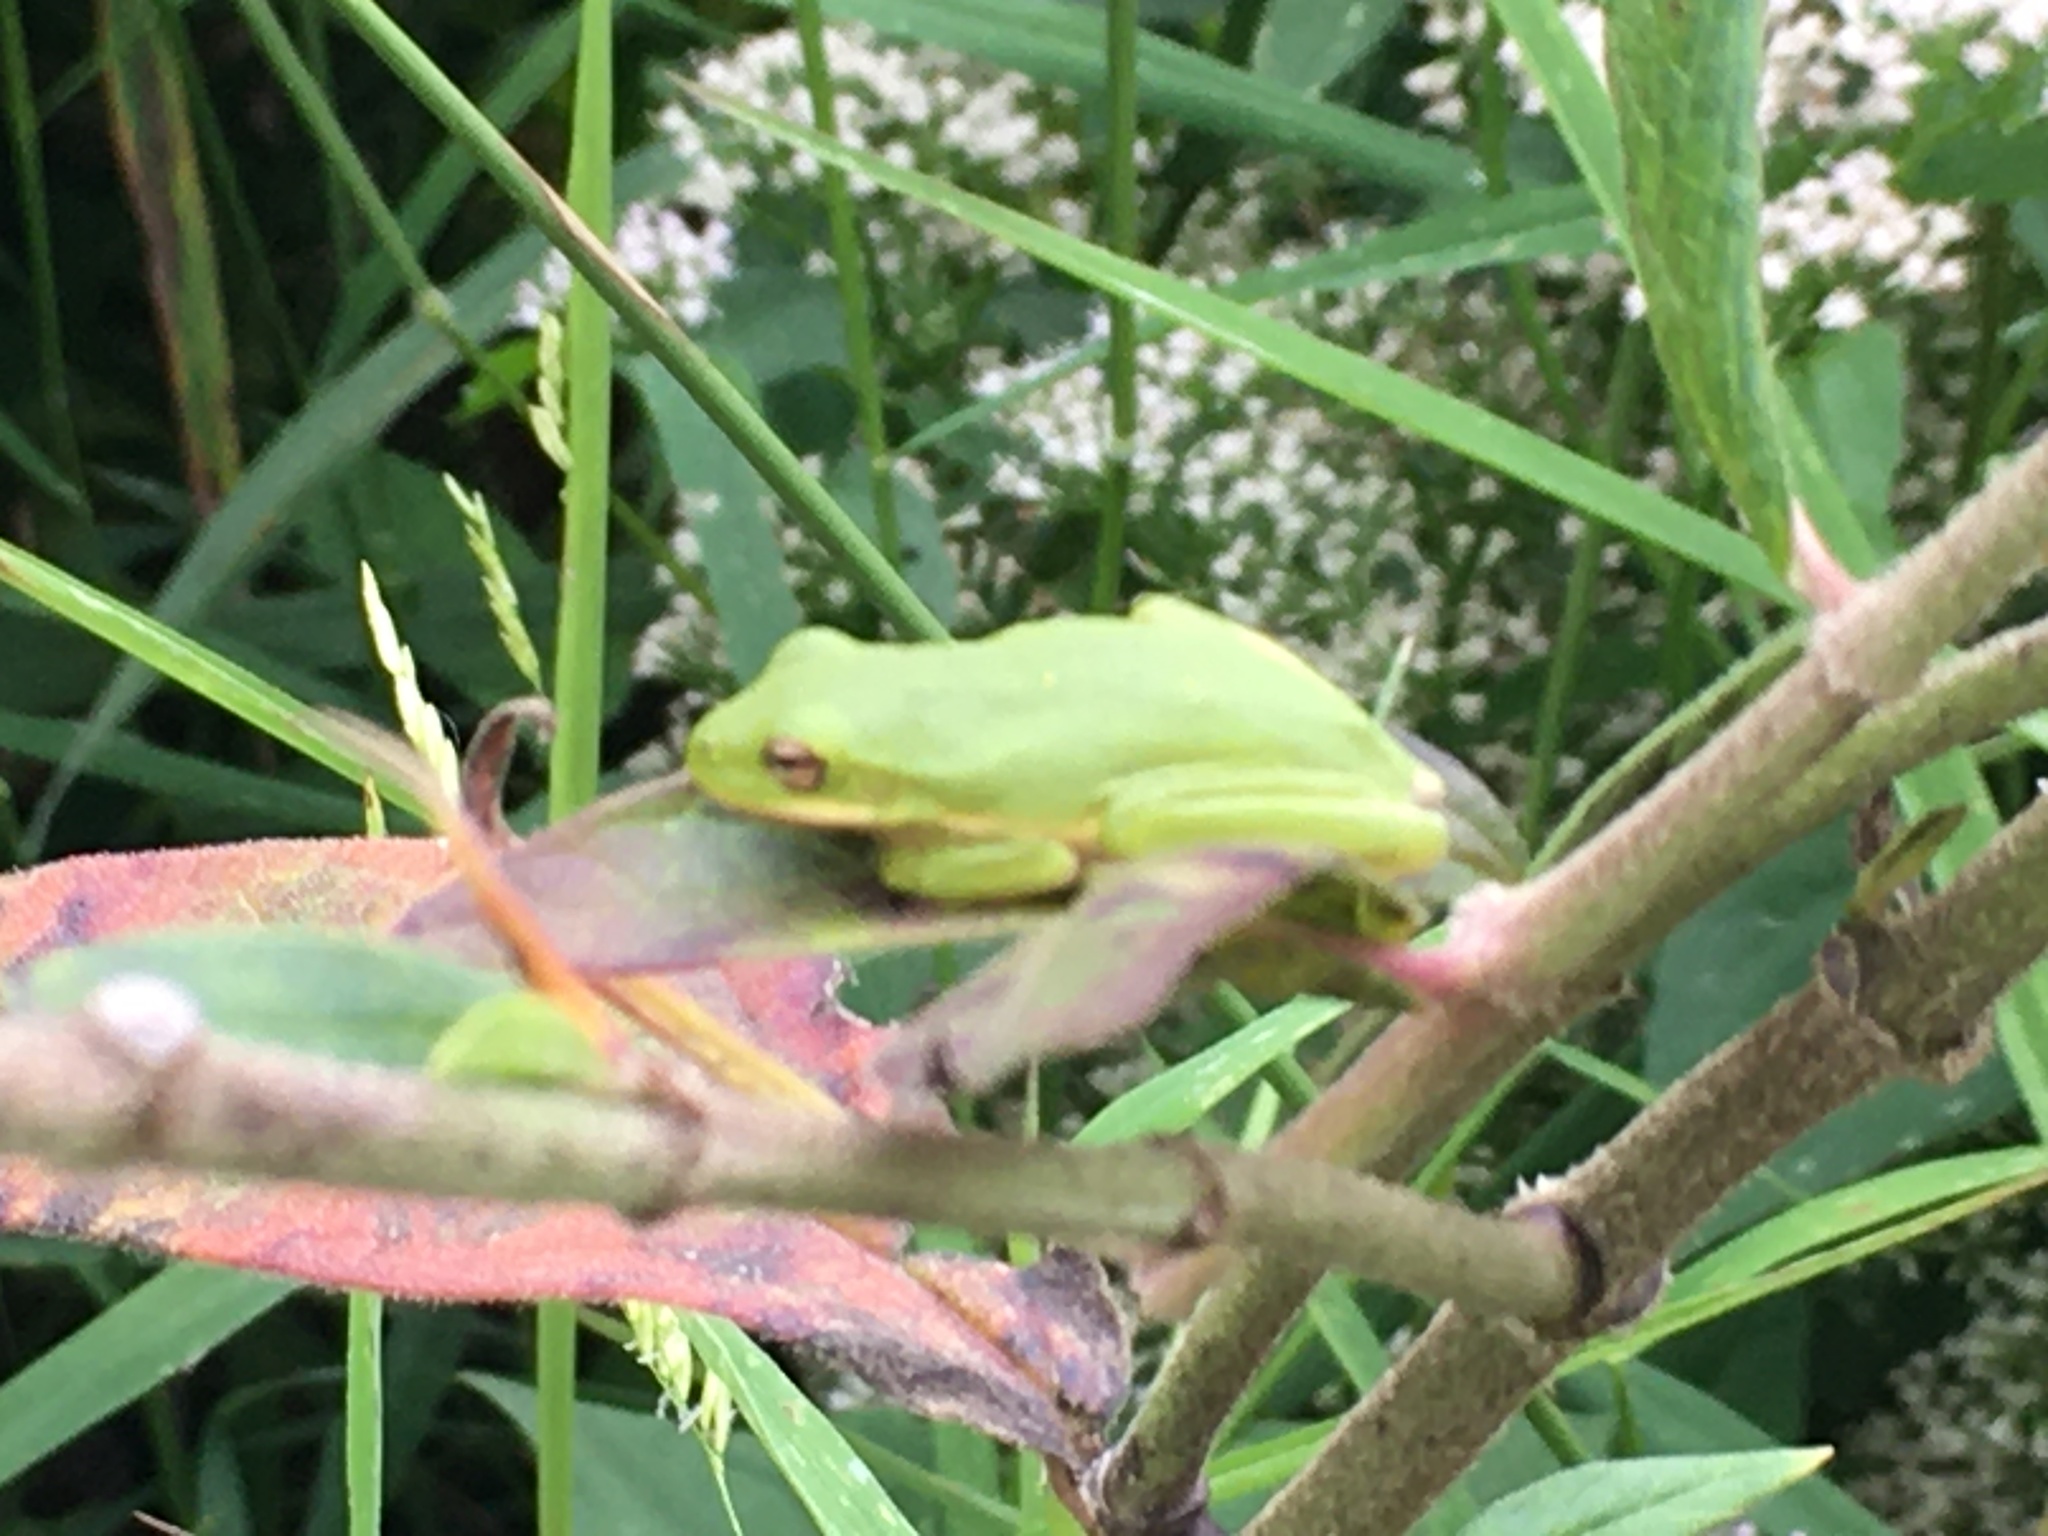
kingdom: Animalia
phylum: Chordata
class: Amphibia
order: Anura
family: Hylidae
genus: Dryophytes
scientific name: Dryophytes cinereus
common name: Green treefrog
